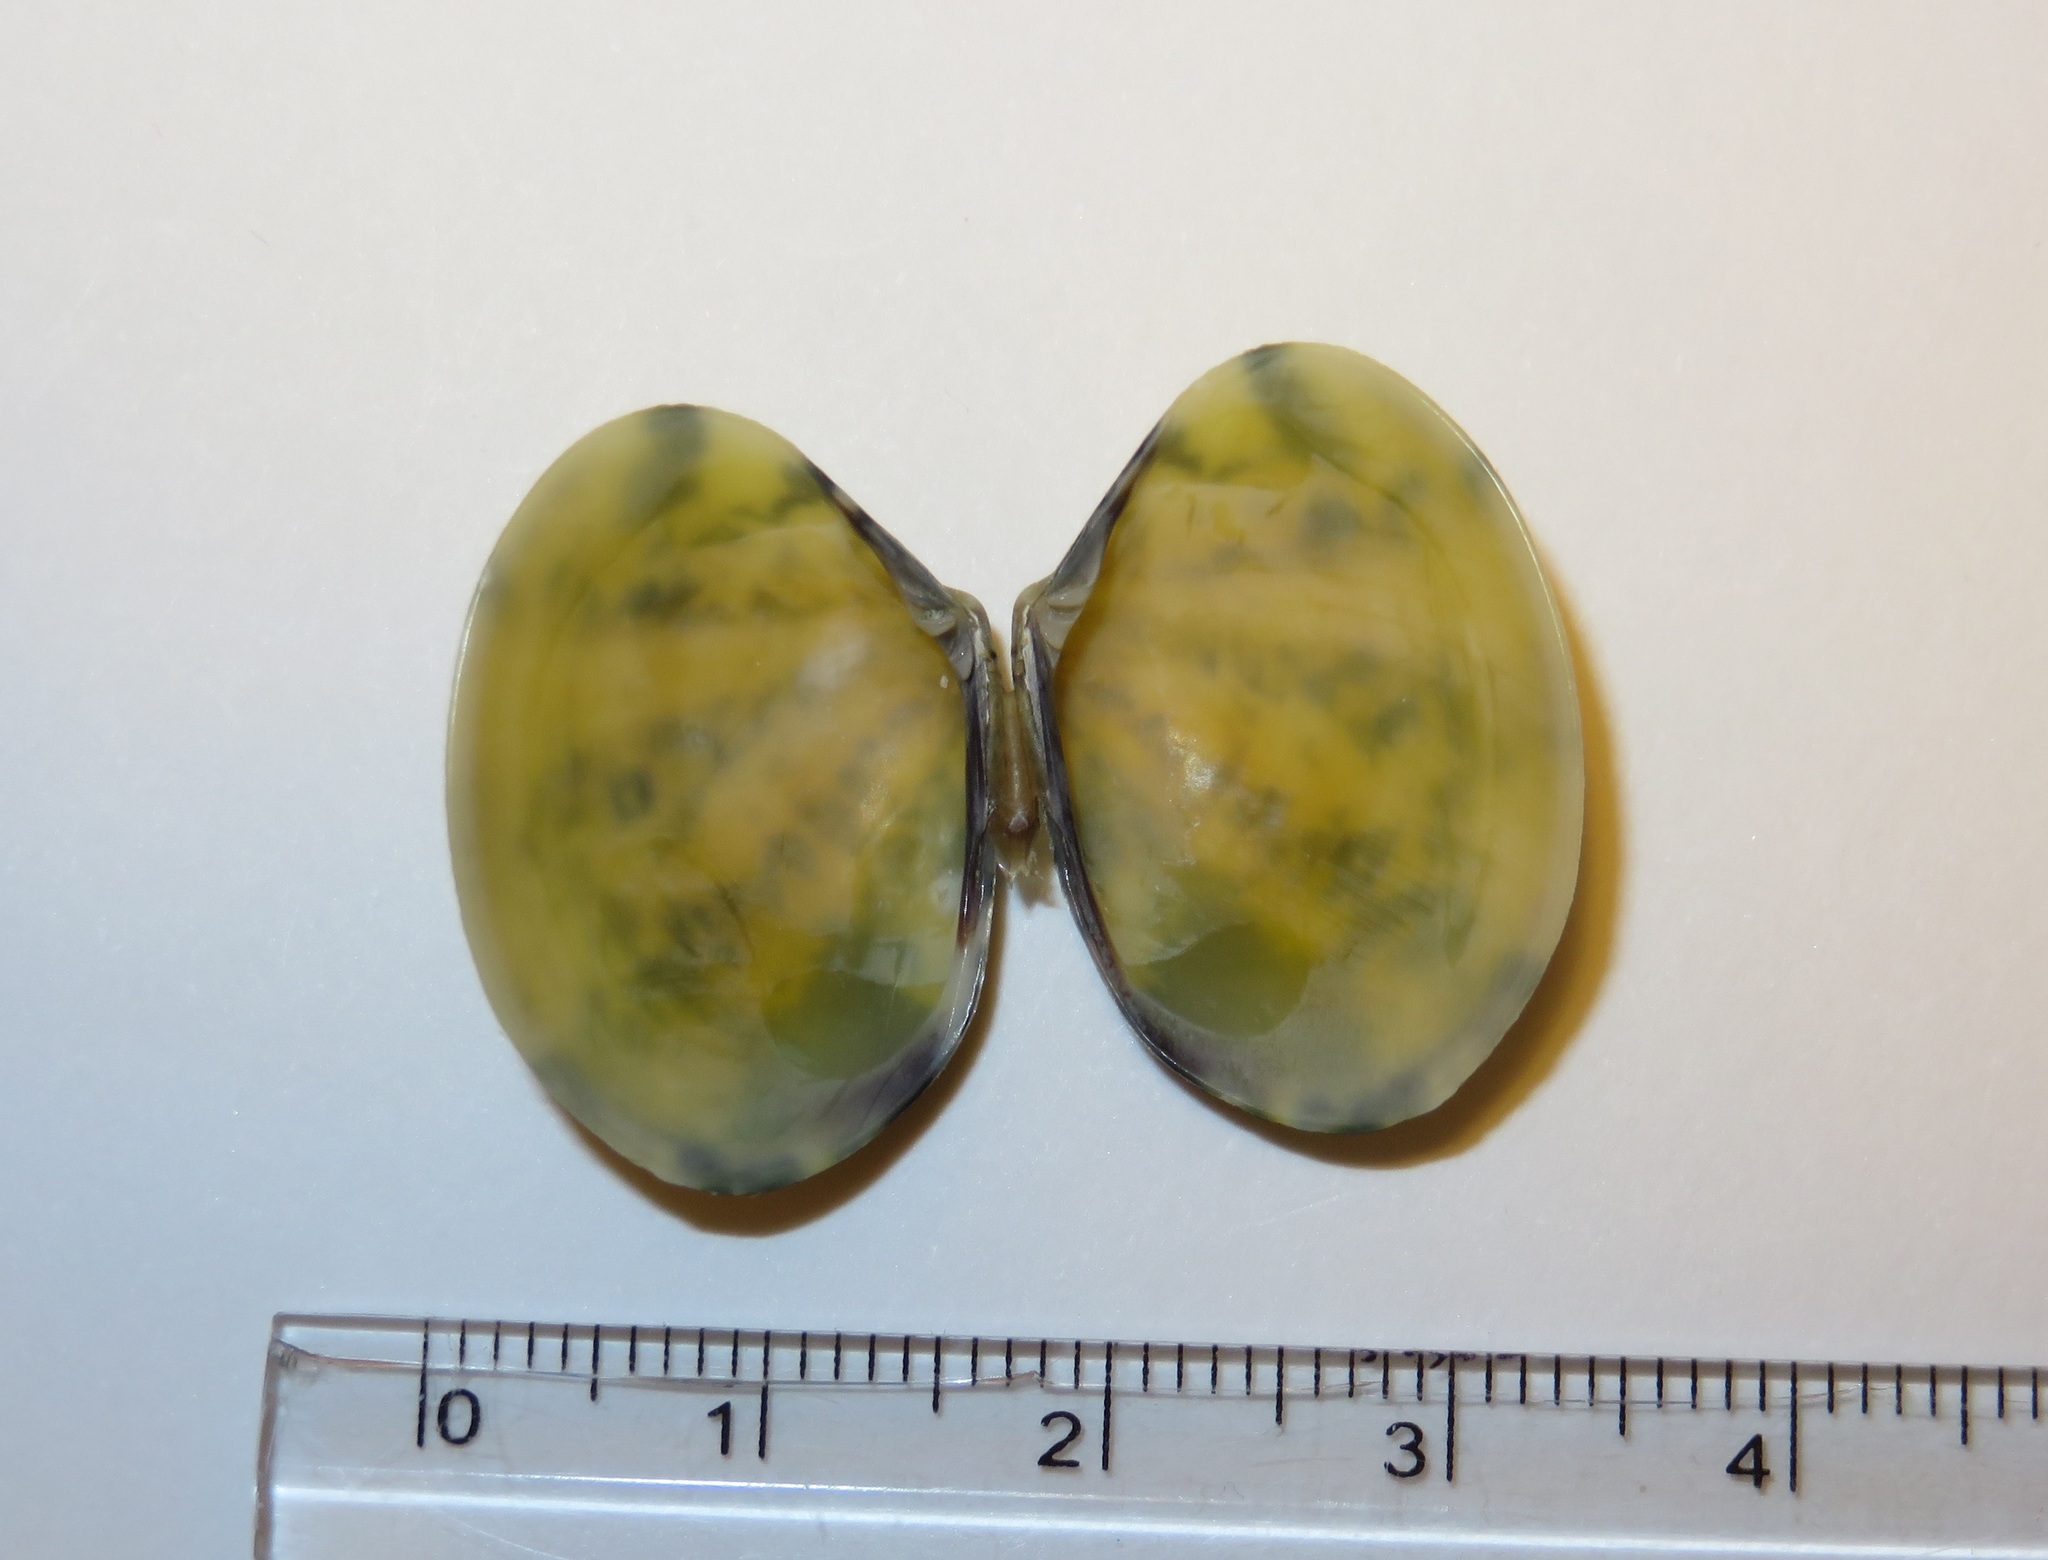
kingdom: Animalia
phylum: Mollusca
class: Bivalvia
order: Venerida
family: Veneridae
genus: Ruditapes
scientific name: Ruditapes philippinarum
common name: Manila clam
